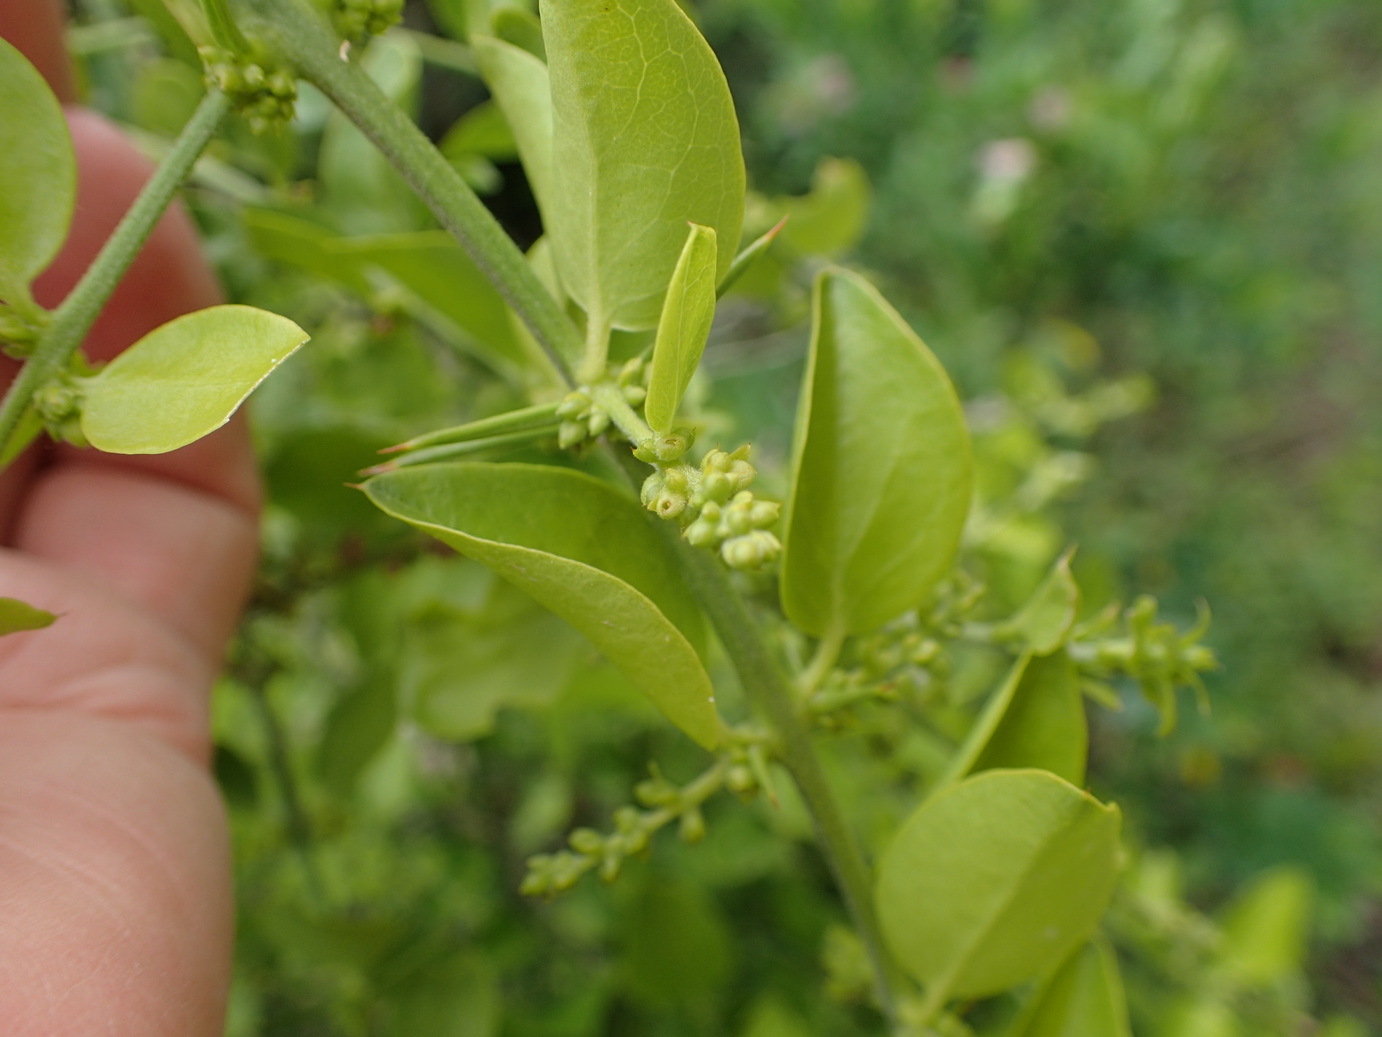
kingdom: Plantae
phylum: Tracheophyta
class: Magnoliopsida
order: Brassicales
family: Salvadoraceae
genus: Azima
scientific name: Azima tetracantha
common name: Needle bush
